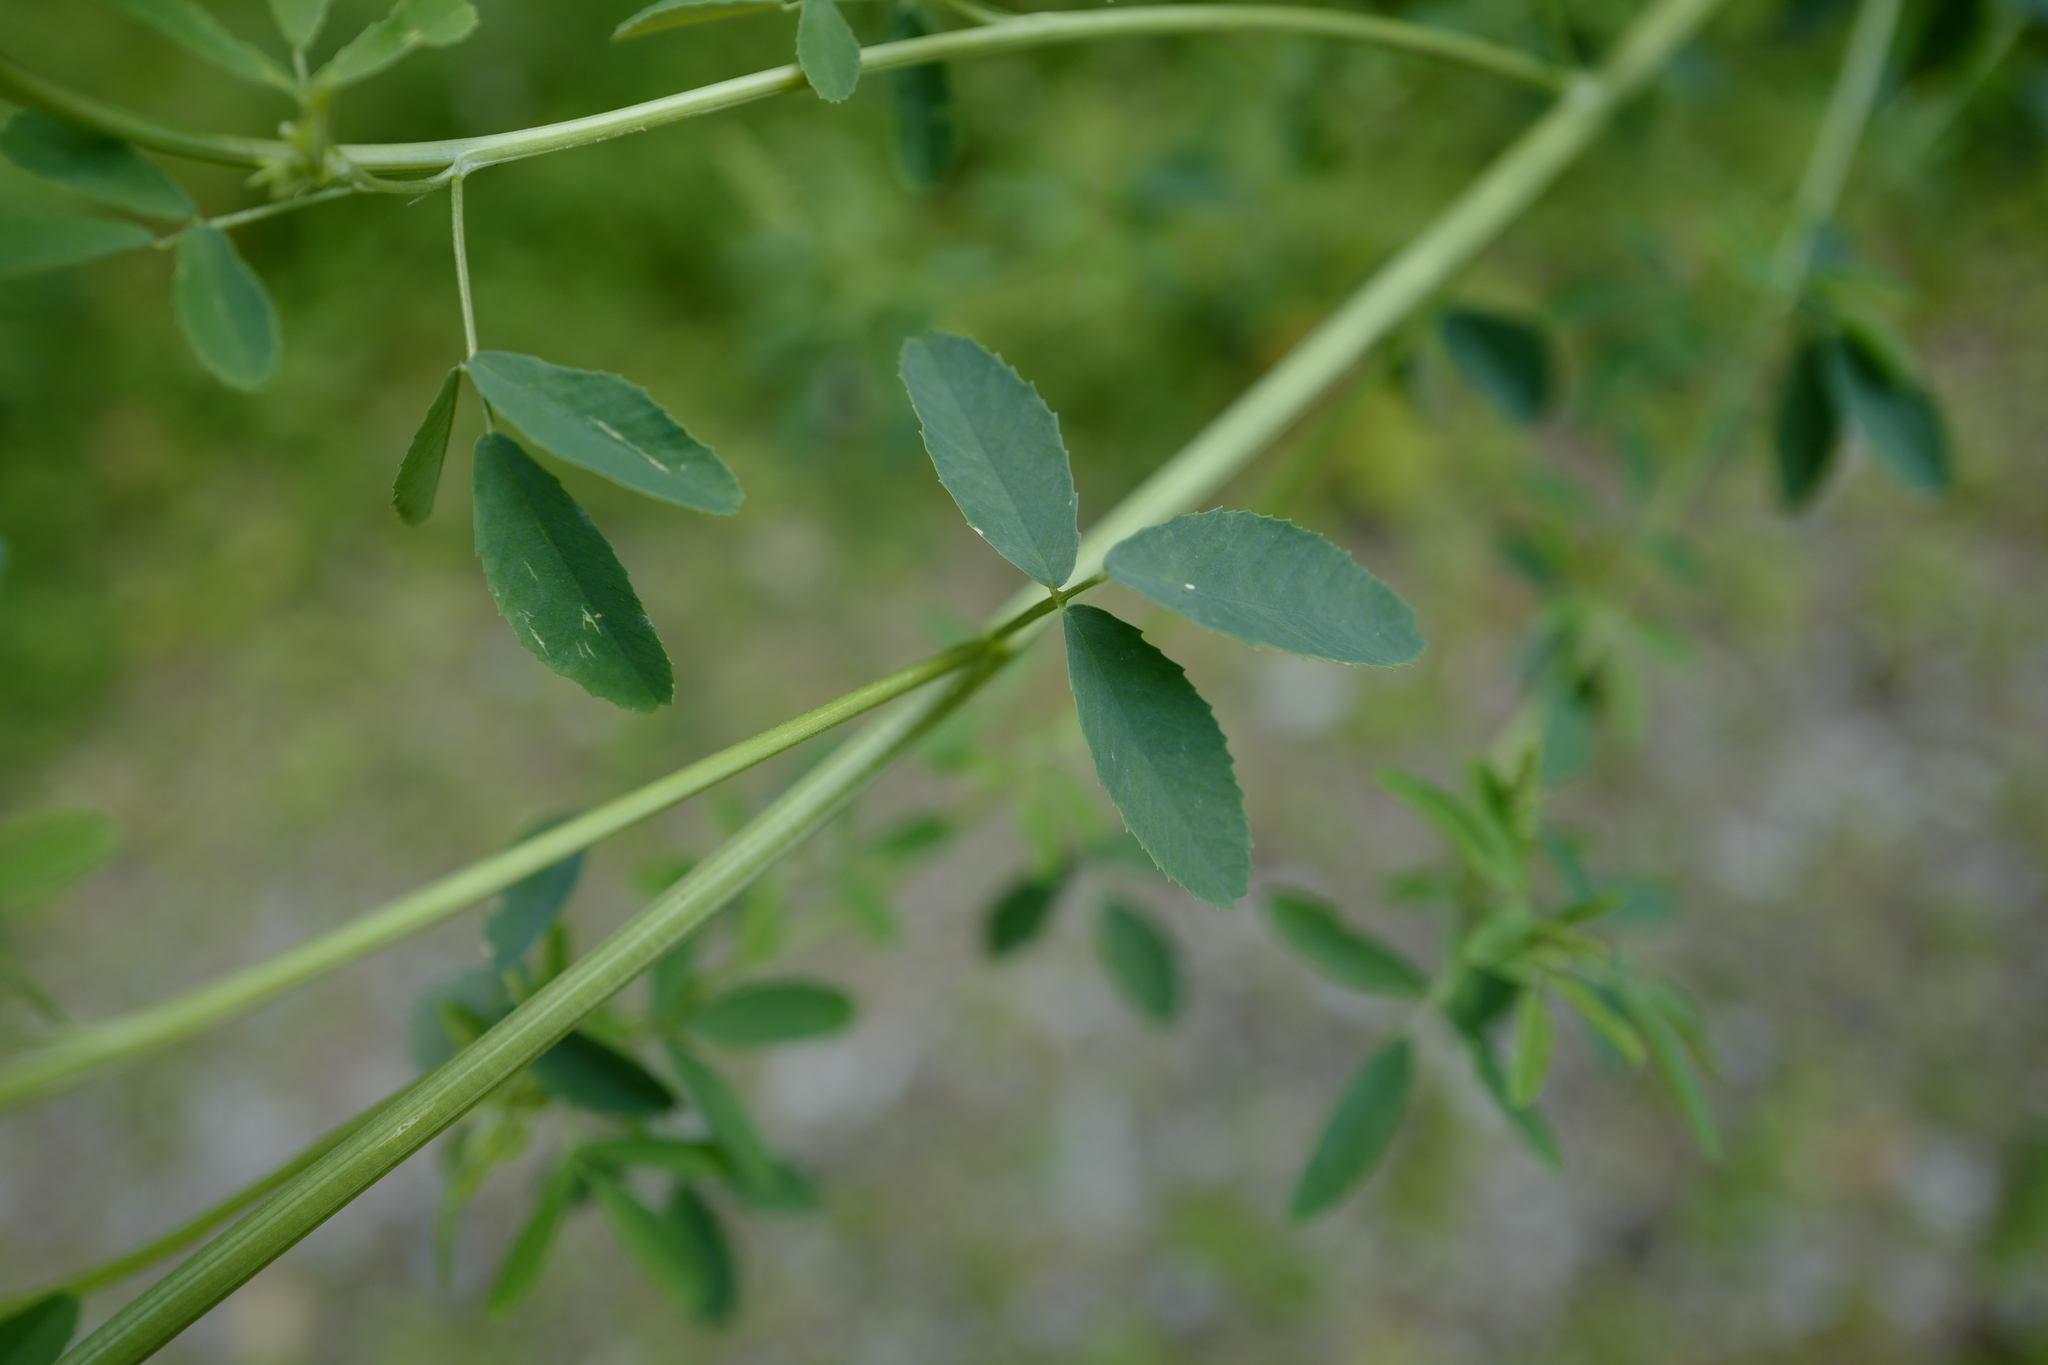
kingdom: Plantae
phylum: Tracheophyta
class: Magnoliopsida
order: Fabales
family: Fabaceae
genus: Melilotus
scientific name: Melilotus albus
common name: White melilot
